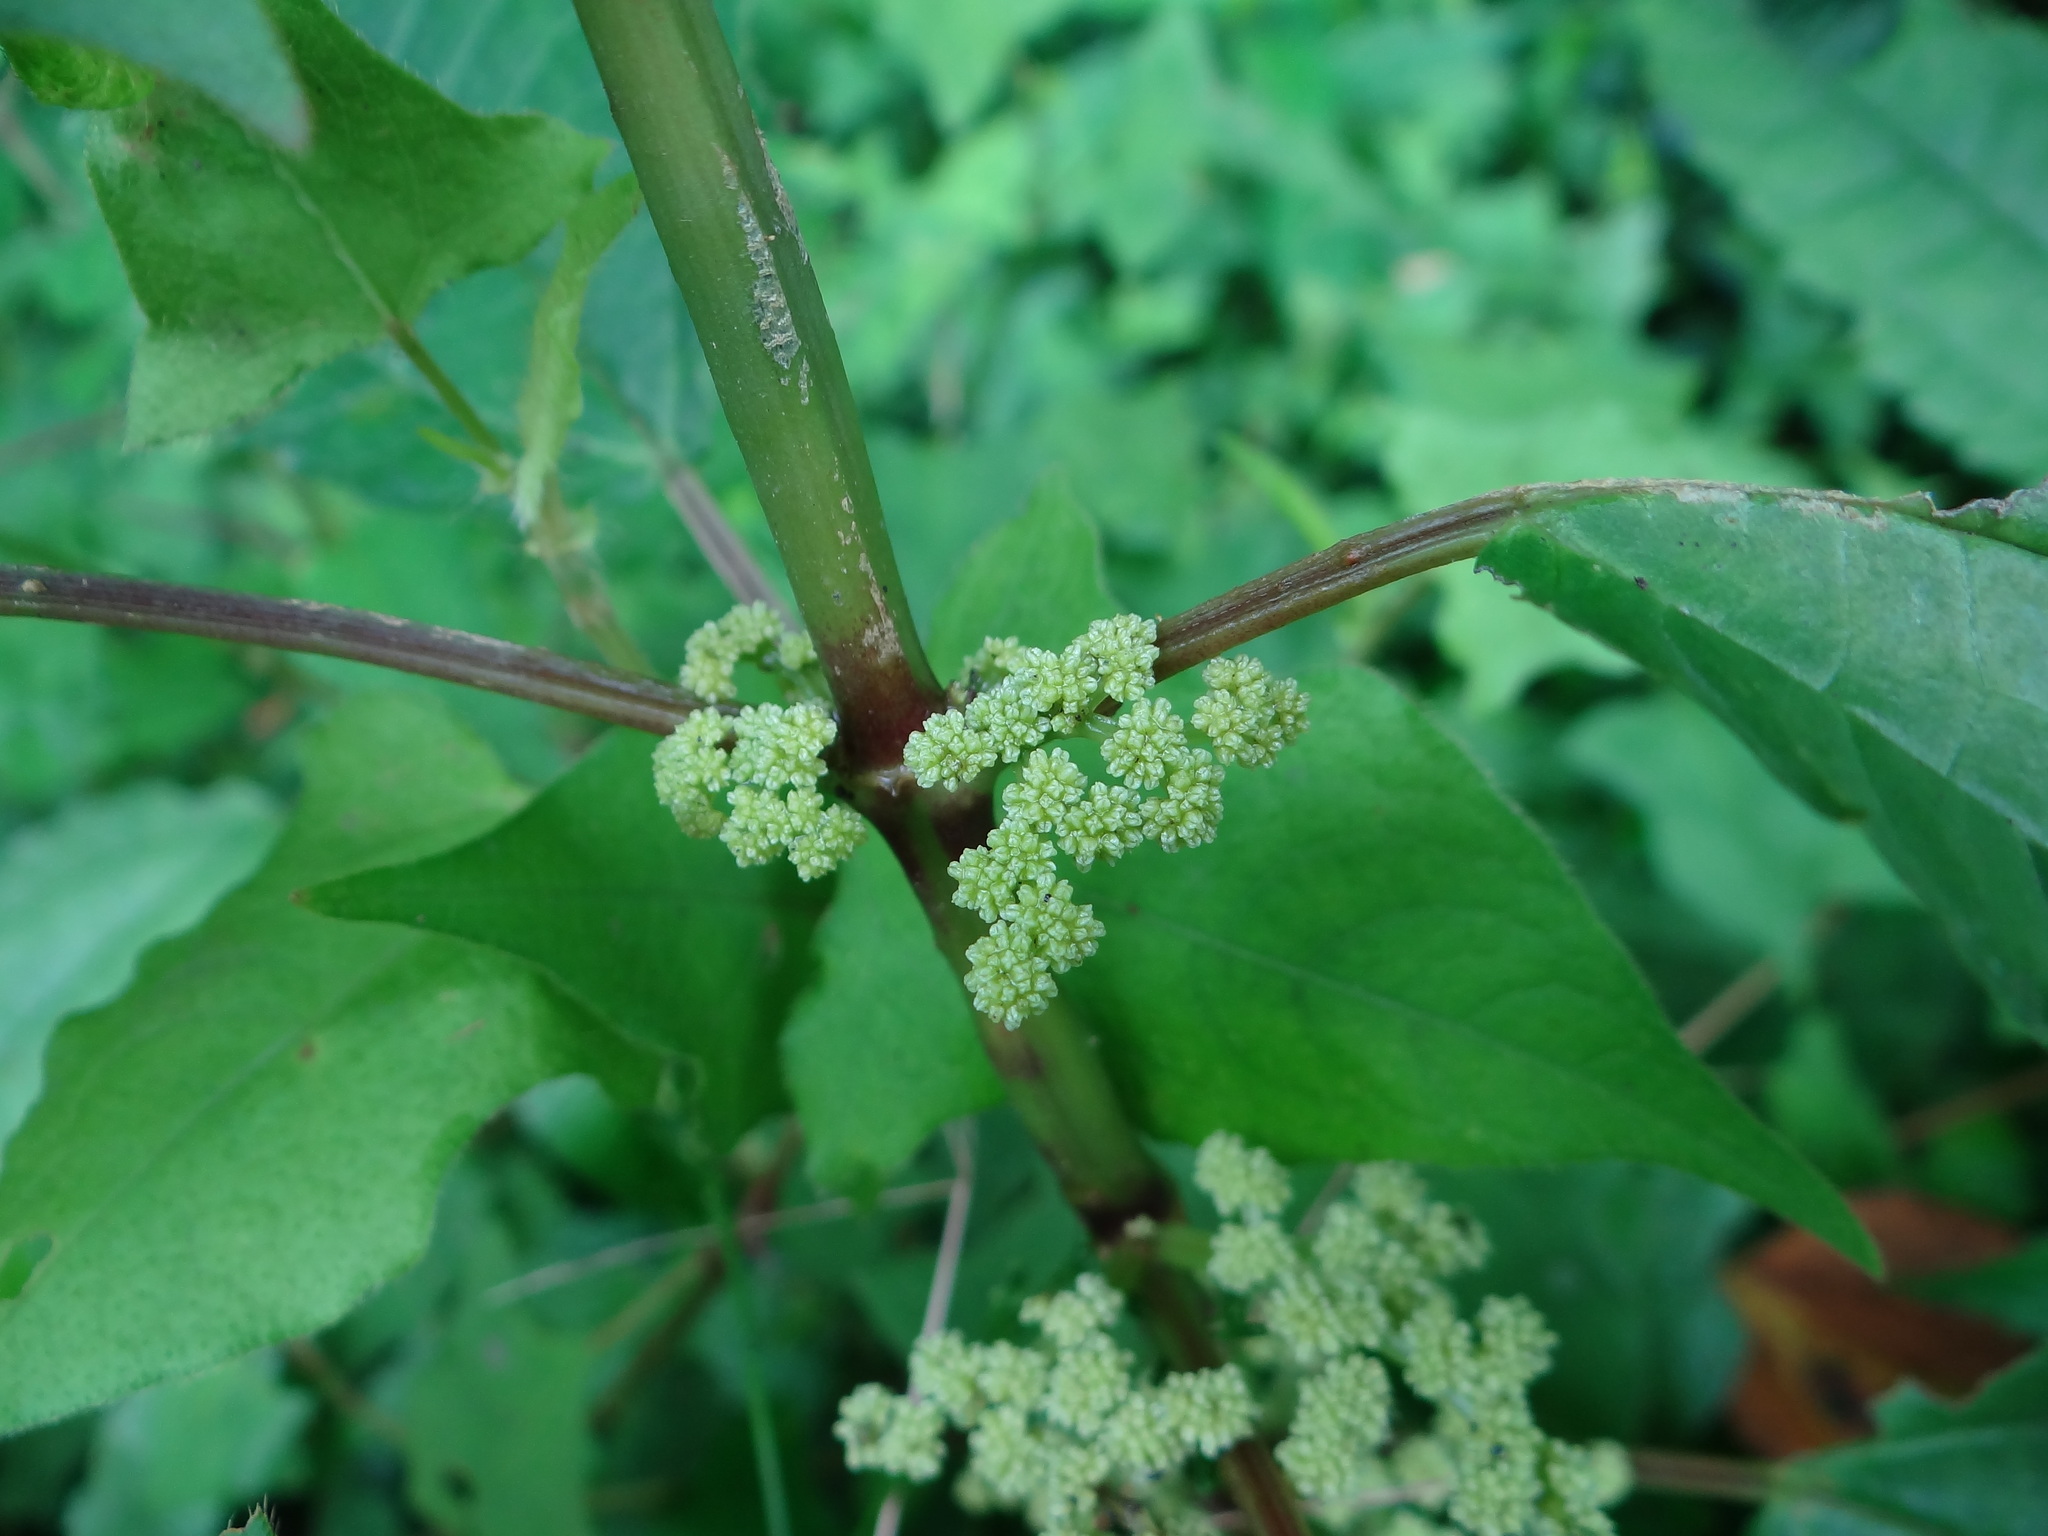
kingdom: Plantae
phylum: Tracheophyta
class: Magnoliopsida
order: Rosales
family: Urticaceae
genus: Pilea
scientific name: Pilea angulata
